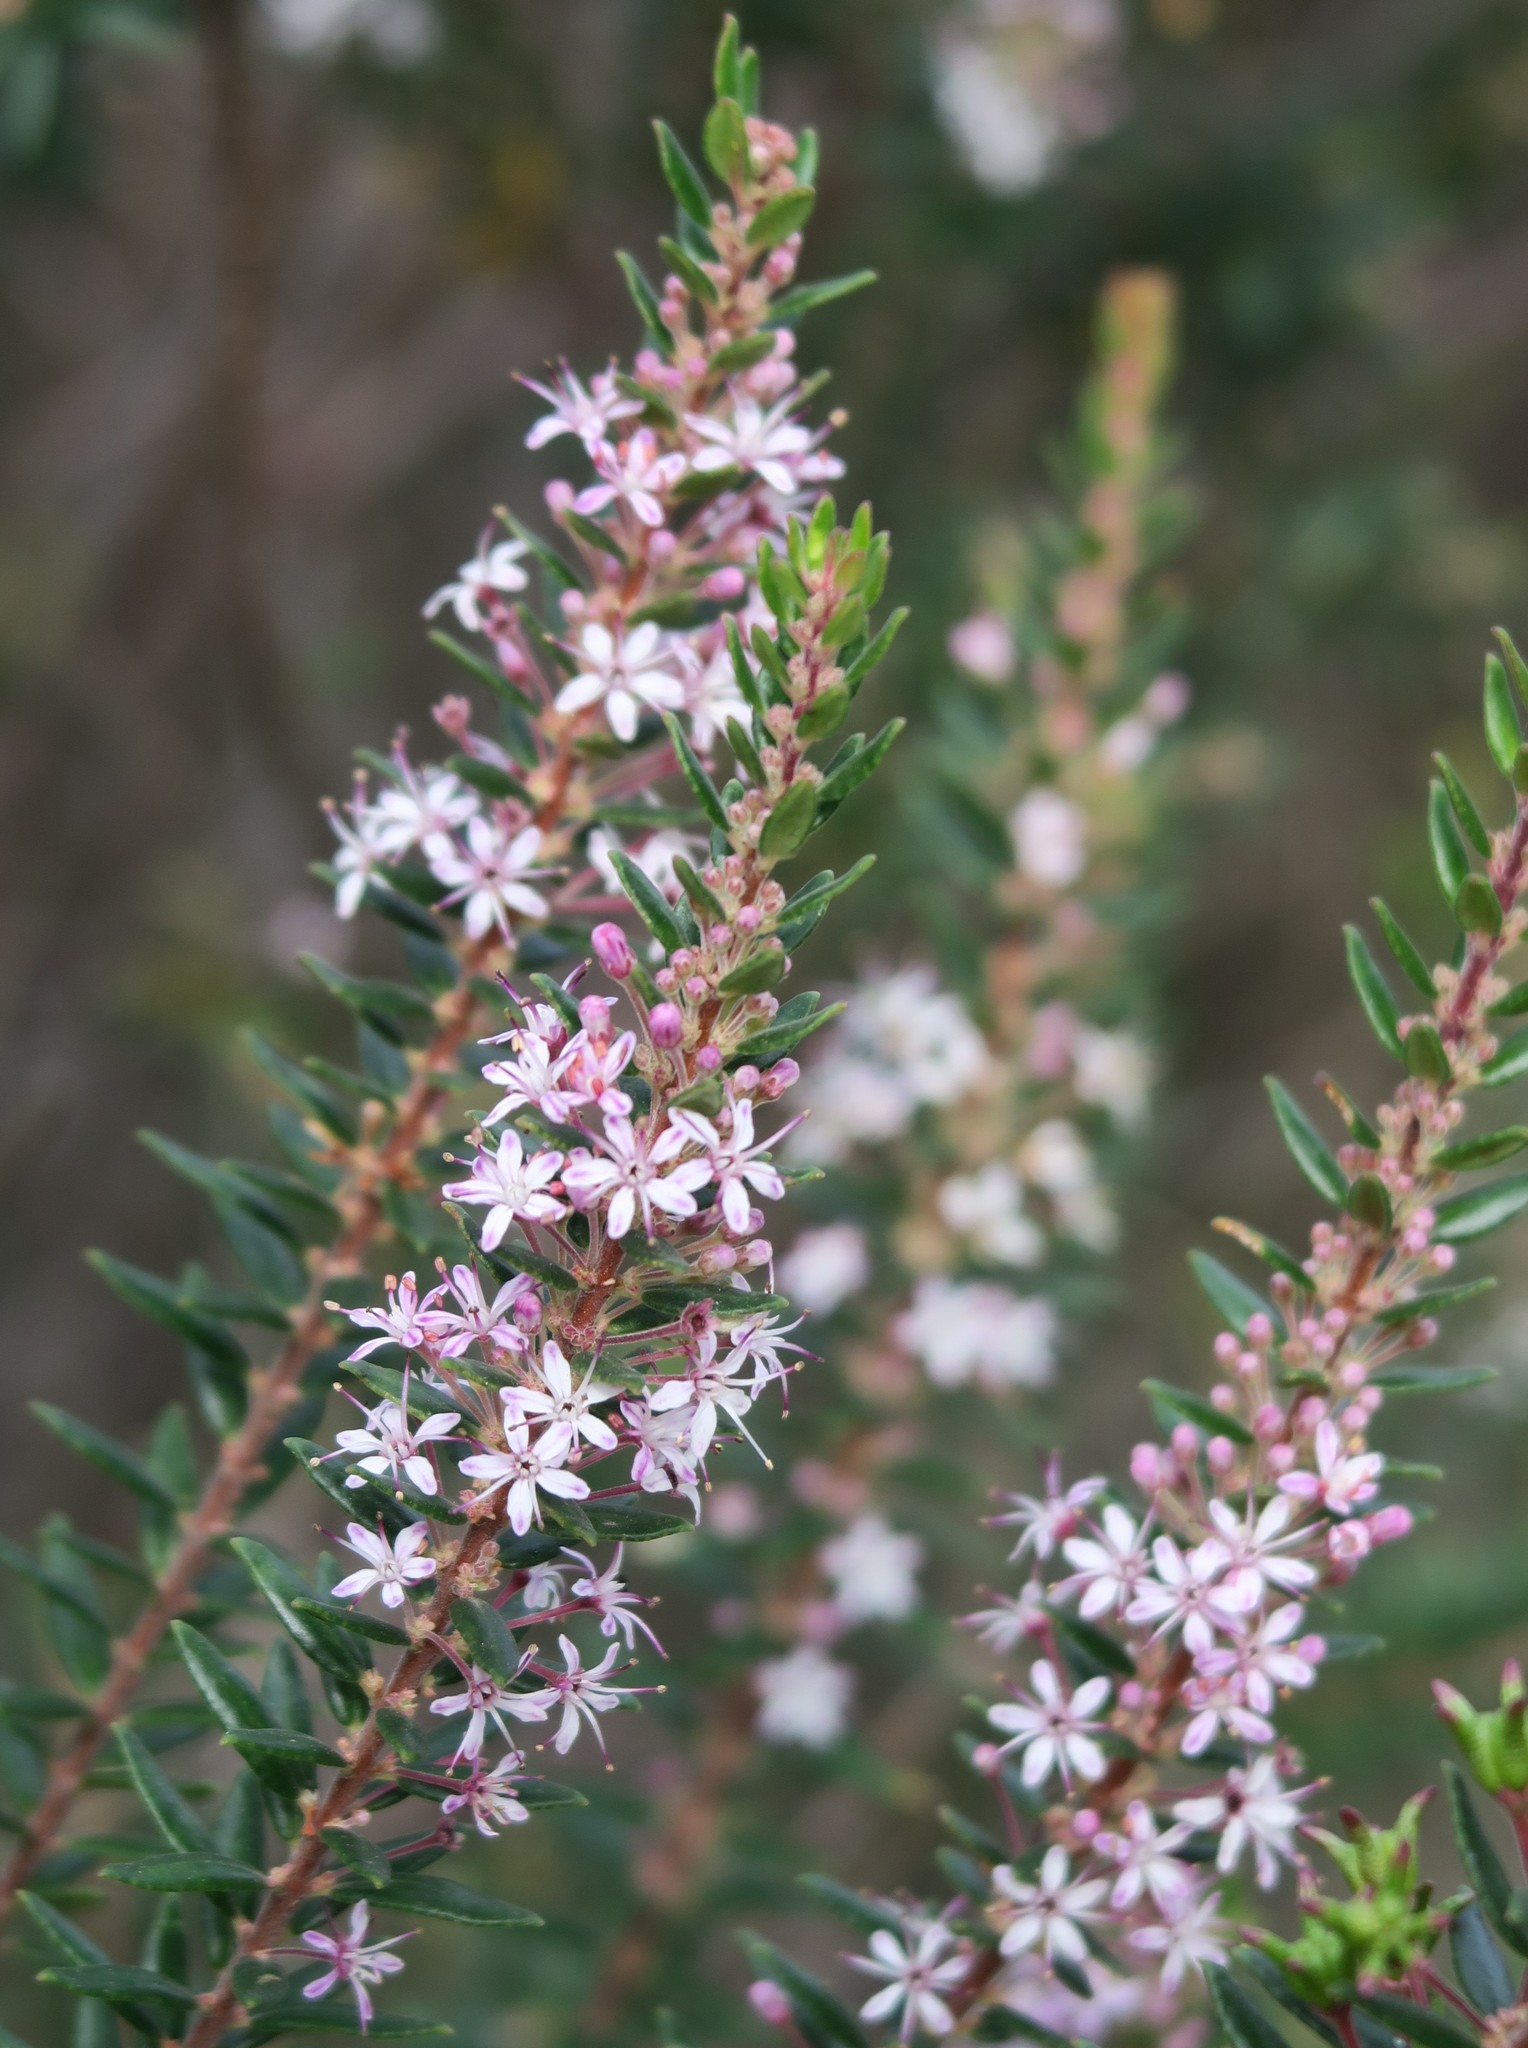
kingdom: Plantae
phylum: Tracheophyta
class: Magnoliopsida
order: Sapindales
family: Rutaceae
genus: Agathosma
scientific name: Agathosma ovata
